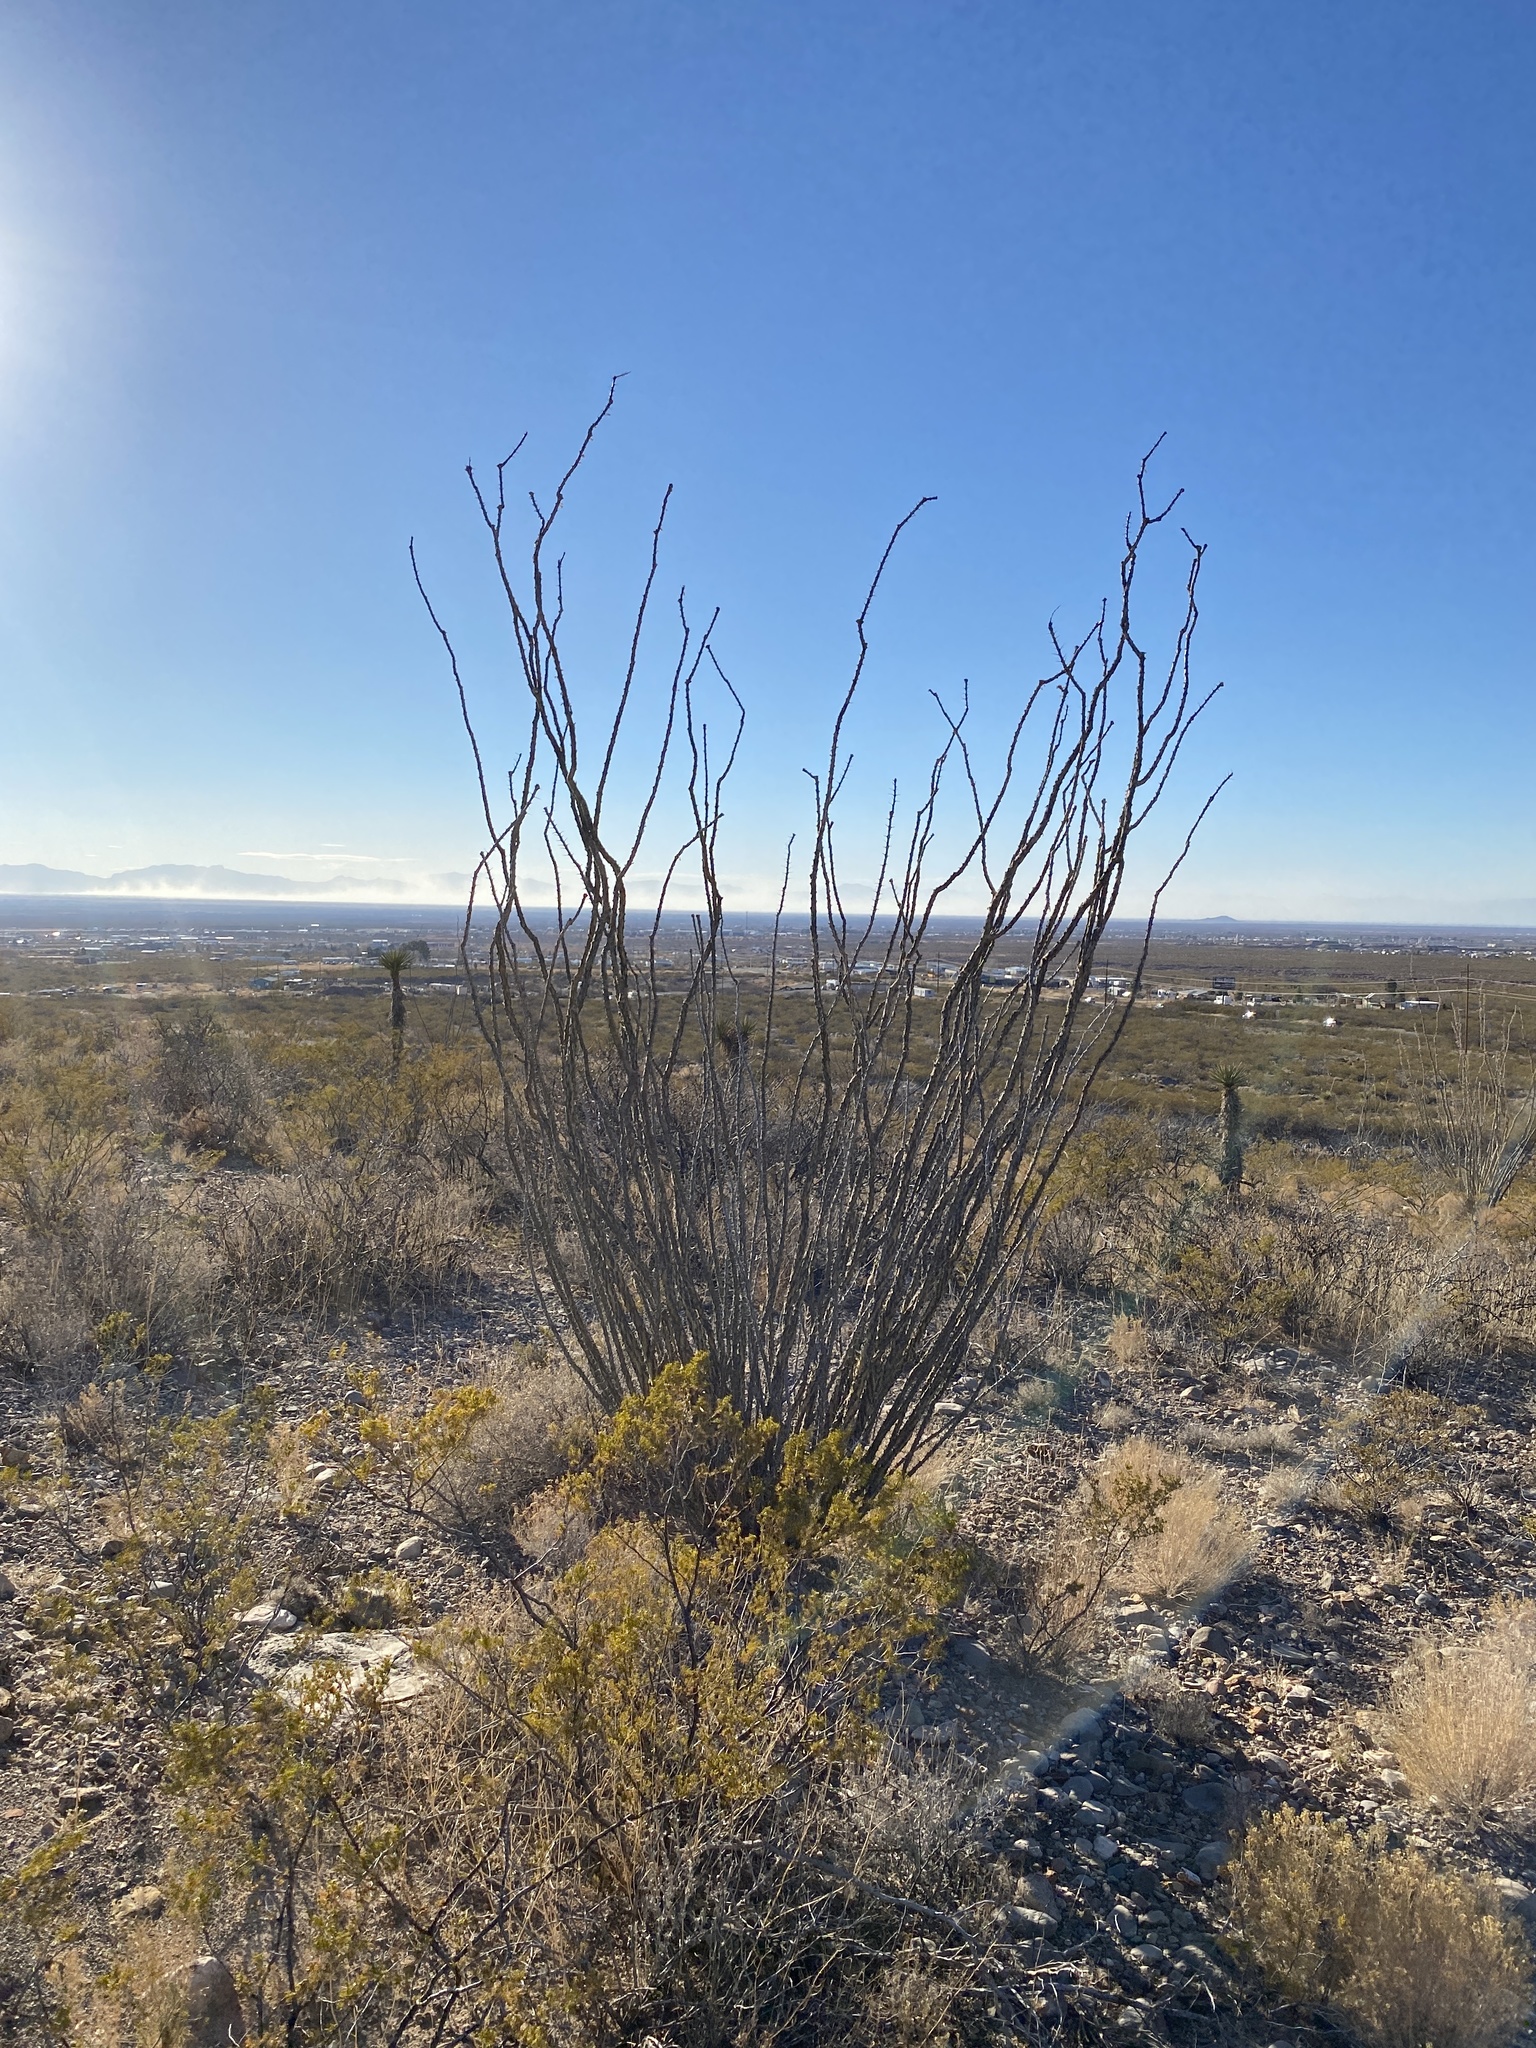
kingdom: Plantae
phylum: Tracheophyta
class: Magnoliopsida
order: Ericales
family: Fouquieriaceae
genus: Fouquieria
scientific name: Fouquieria splendens
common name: Vine-cactus
